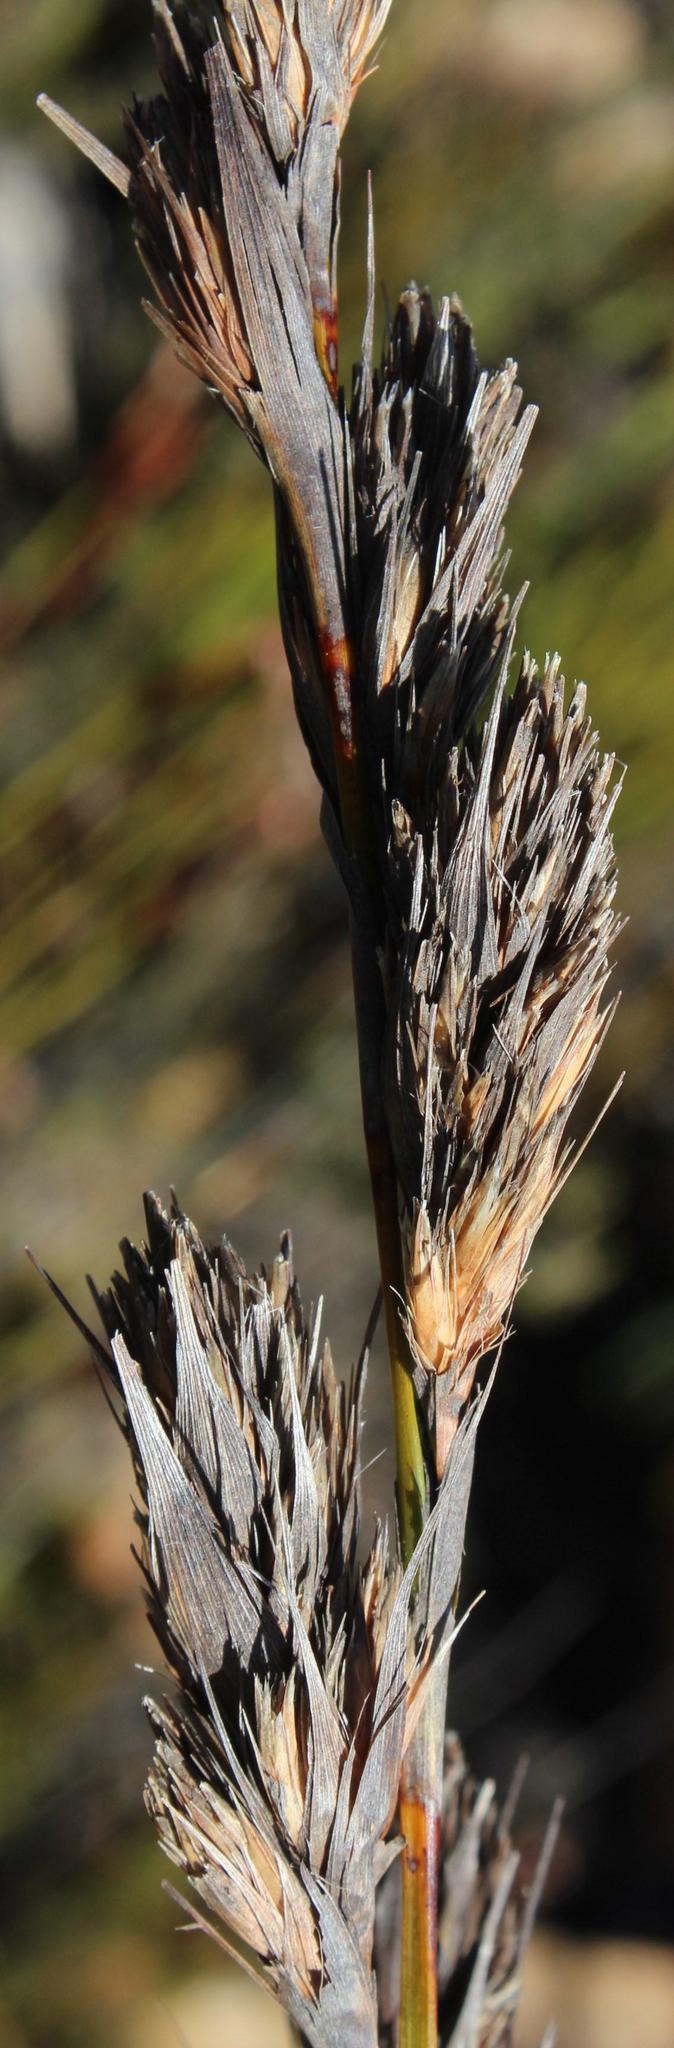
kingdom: Plantae
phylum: Tracheophyta
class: Liliopsida
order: Poales
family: Cyperaceae
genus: Tetraria
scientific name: Tetraria bromoides
